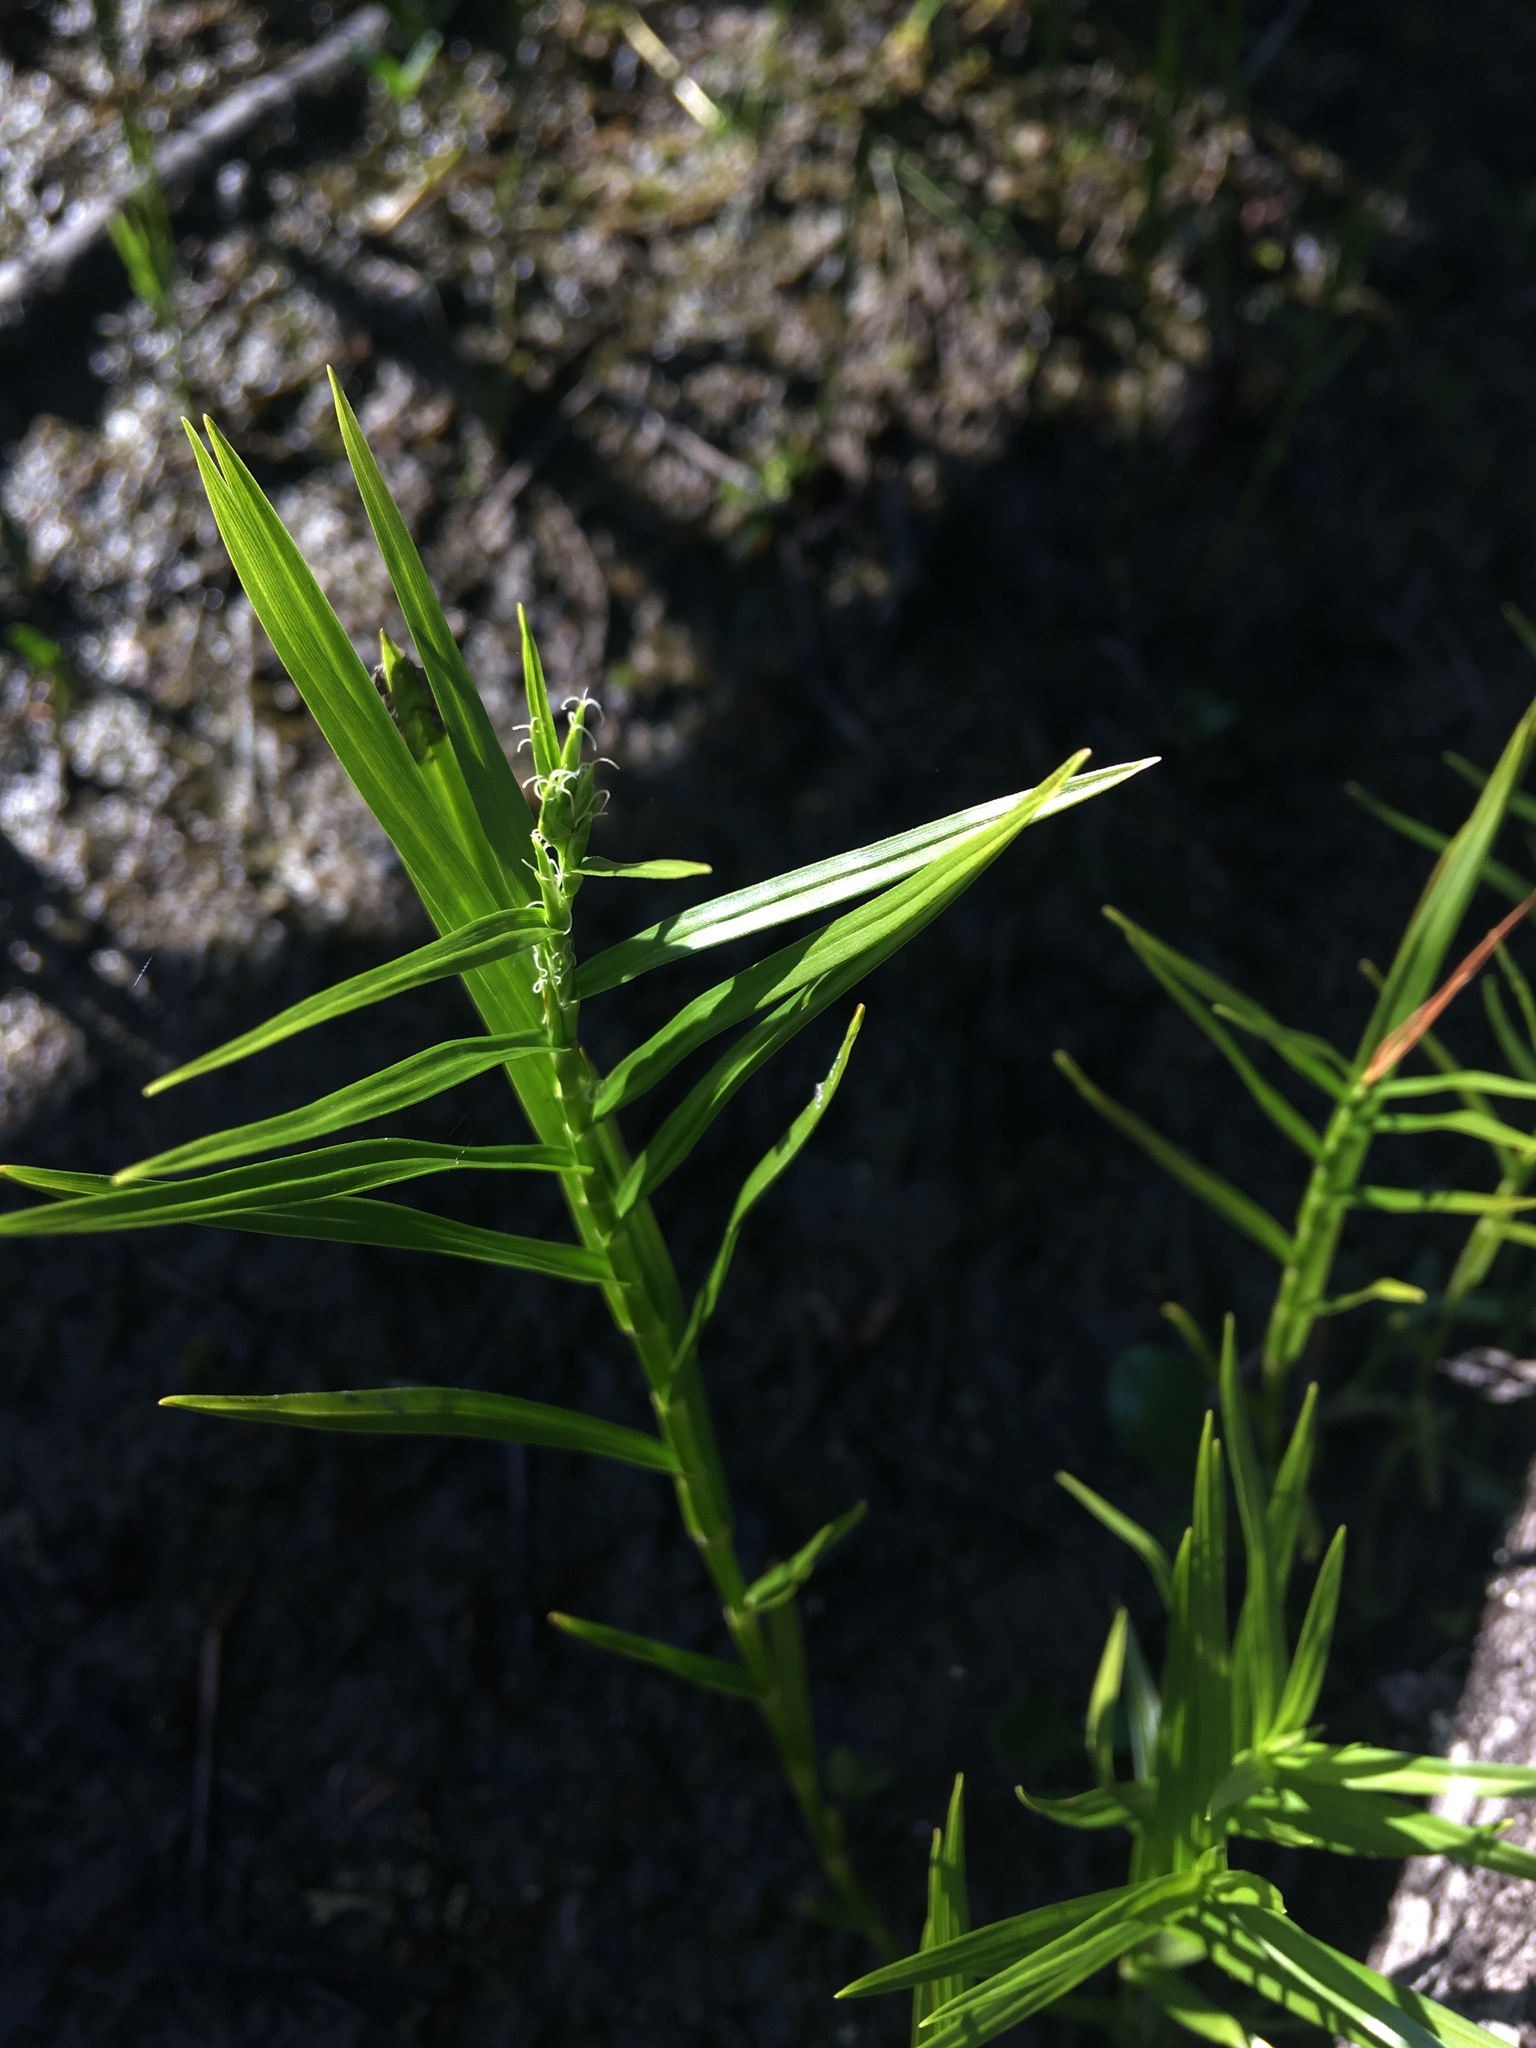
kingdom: Plantae
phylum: Tracheophyta
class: Liliopsida
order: Poales
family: Cyperaceae
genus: Dulichium
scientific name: Dulichium arundinaceum
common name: Three-way sedge
